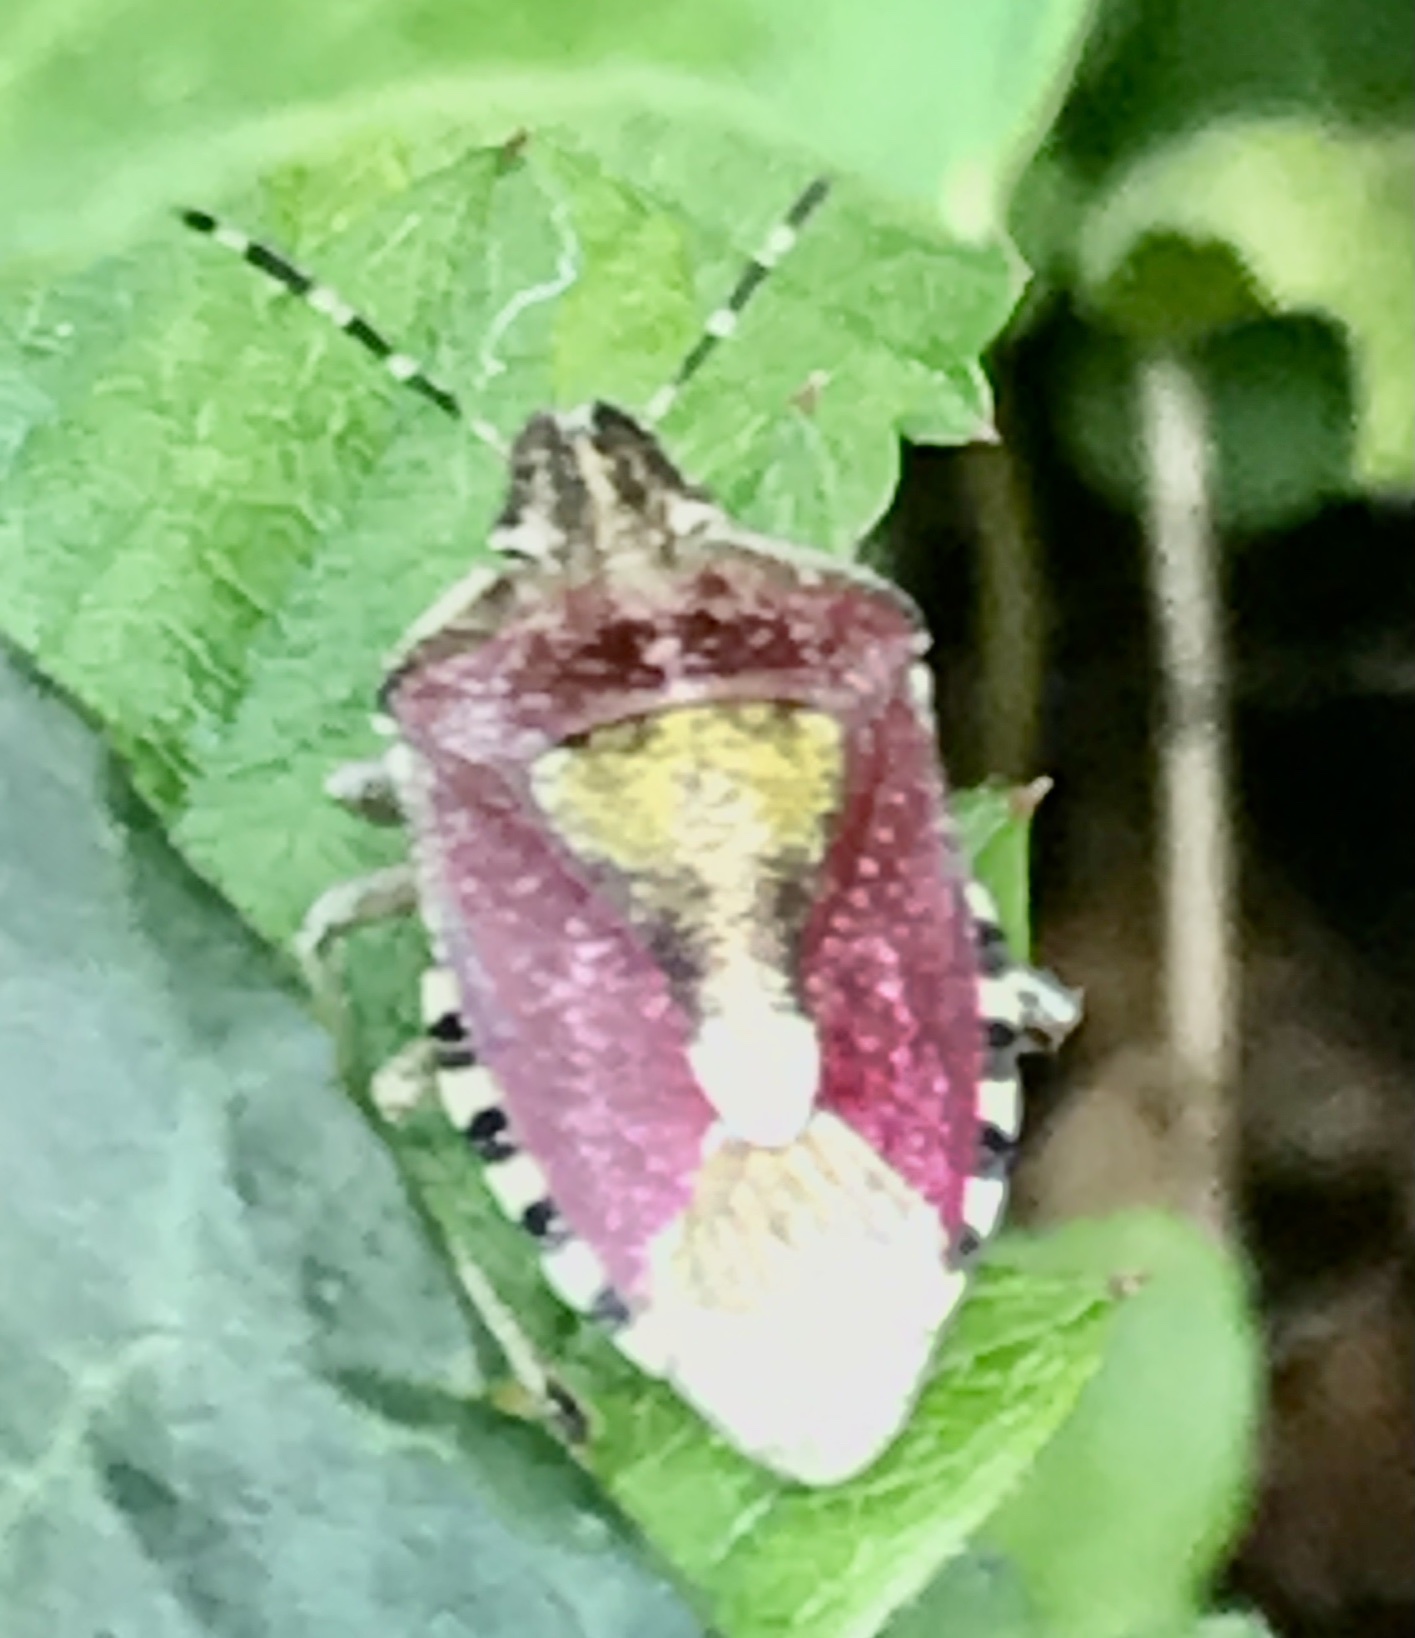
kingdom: Animalia
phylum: Arthropoda
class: Insecta
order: Hemiptera
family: Pentatomidae
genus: Dolycoris
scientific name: Dolycoris baccarum
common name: Sloe bug
